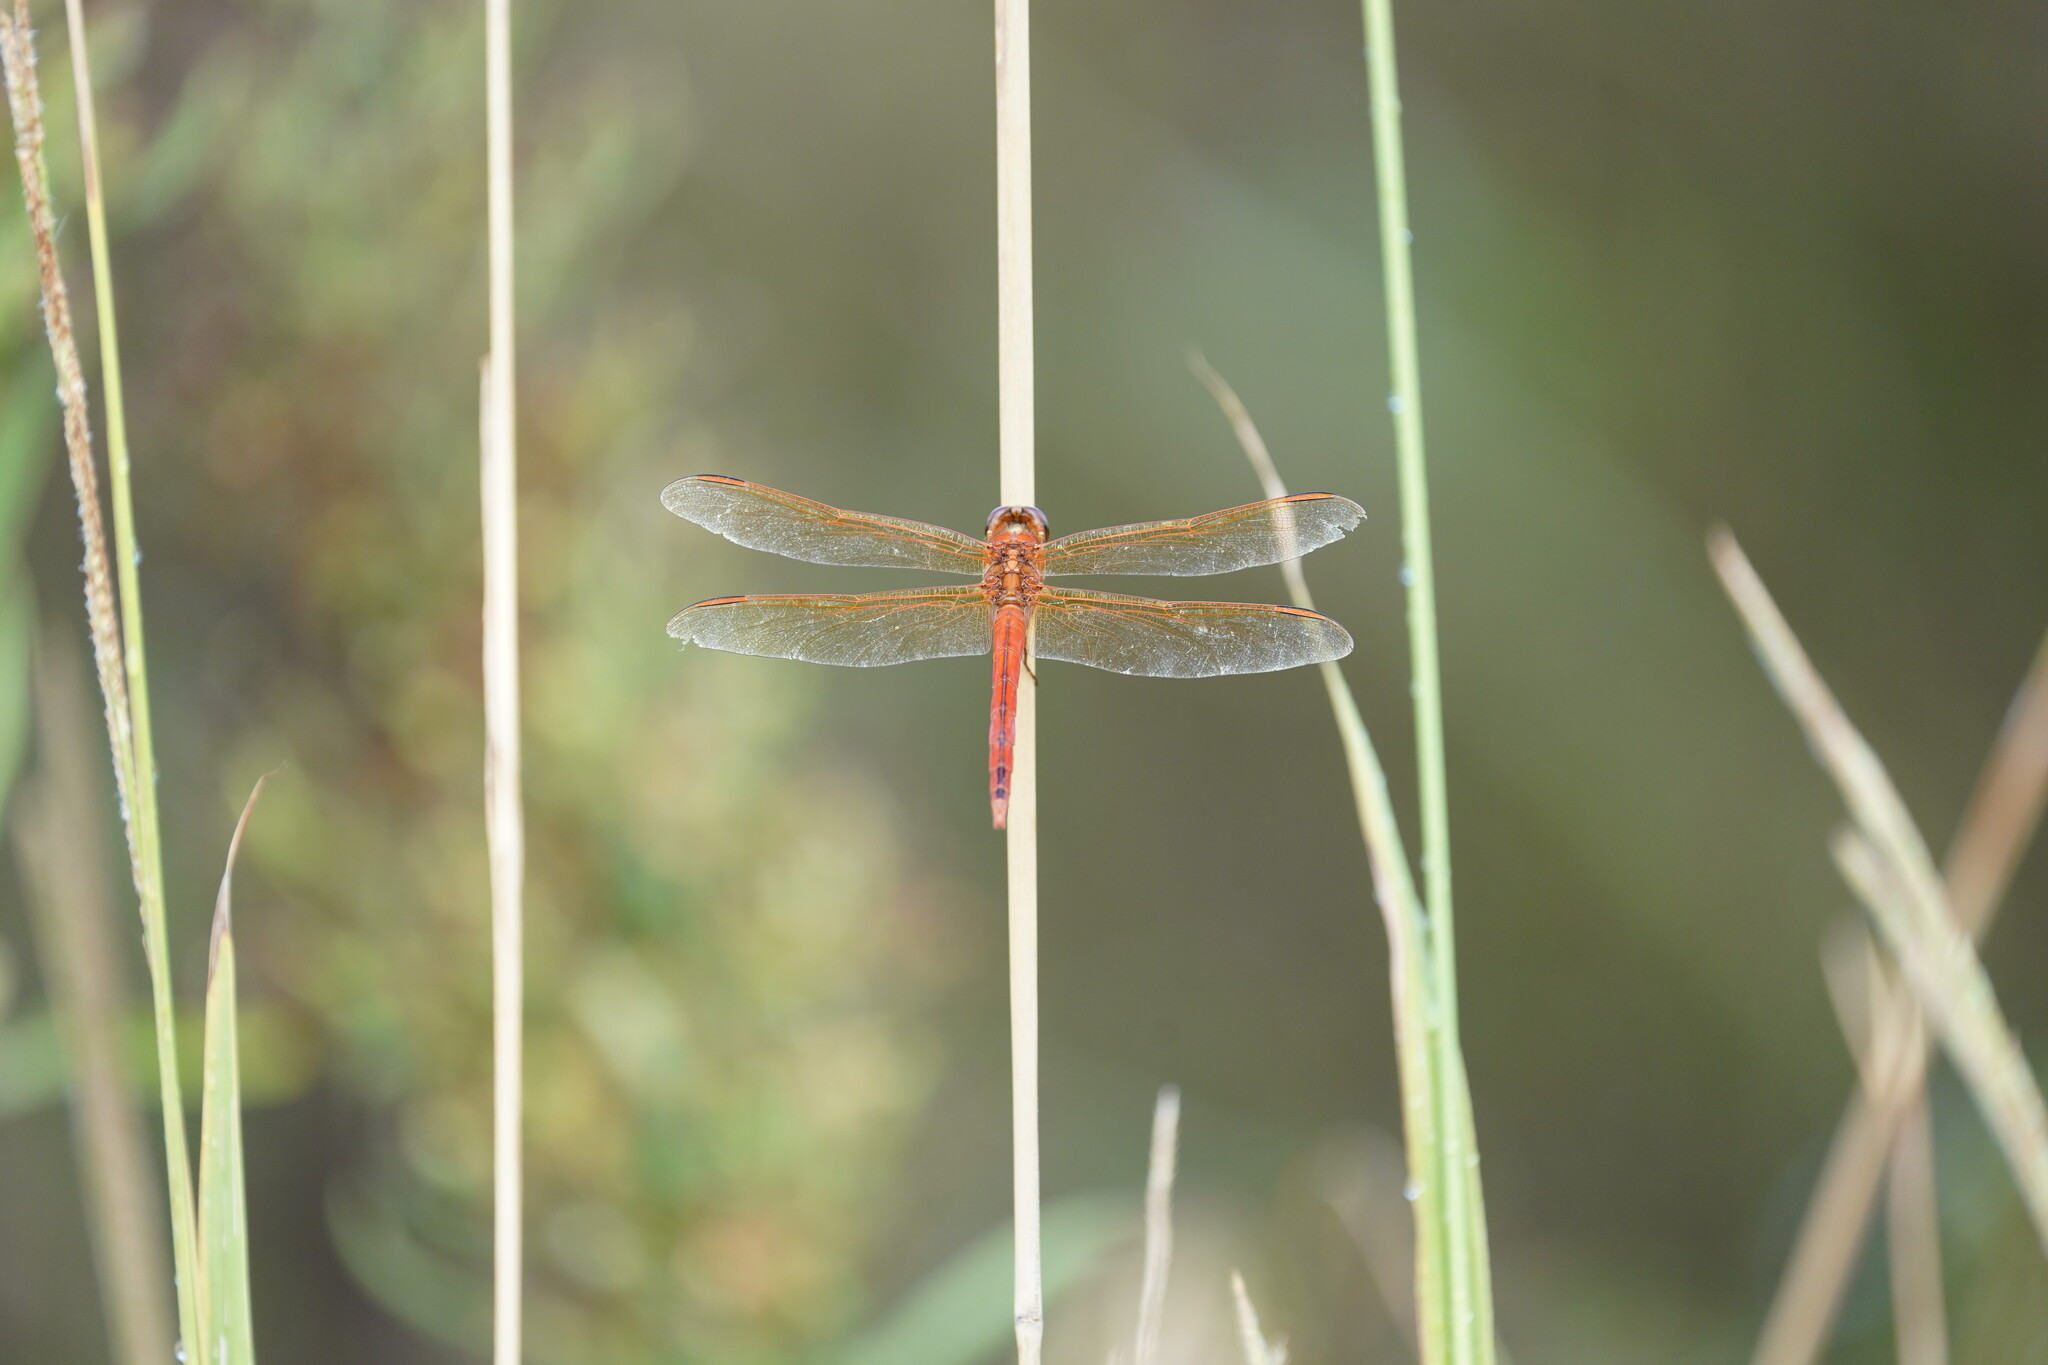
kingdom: Animalia
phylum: Arthropoda
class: Insecta
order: Odonata
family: Libellulidae
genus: Libellula
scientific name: Libellula needhami
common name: Needham's skimmer
